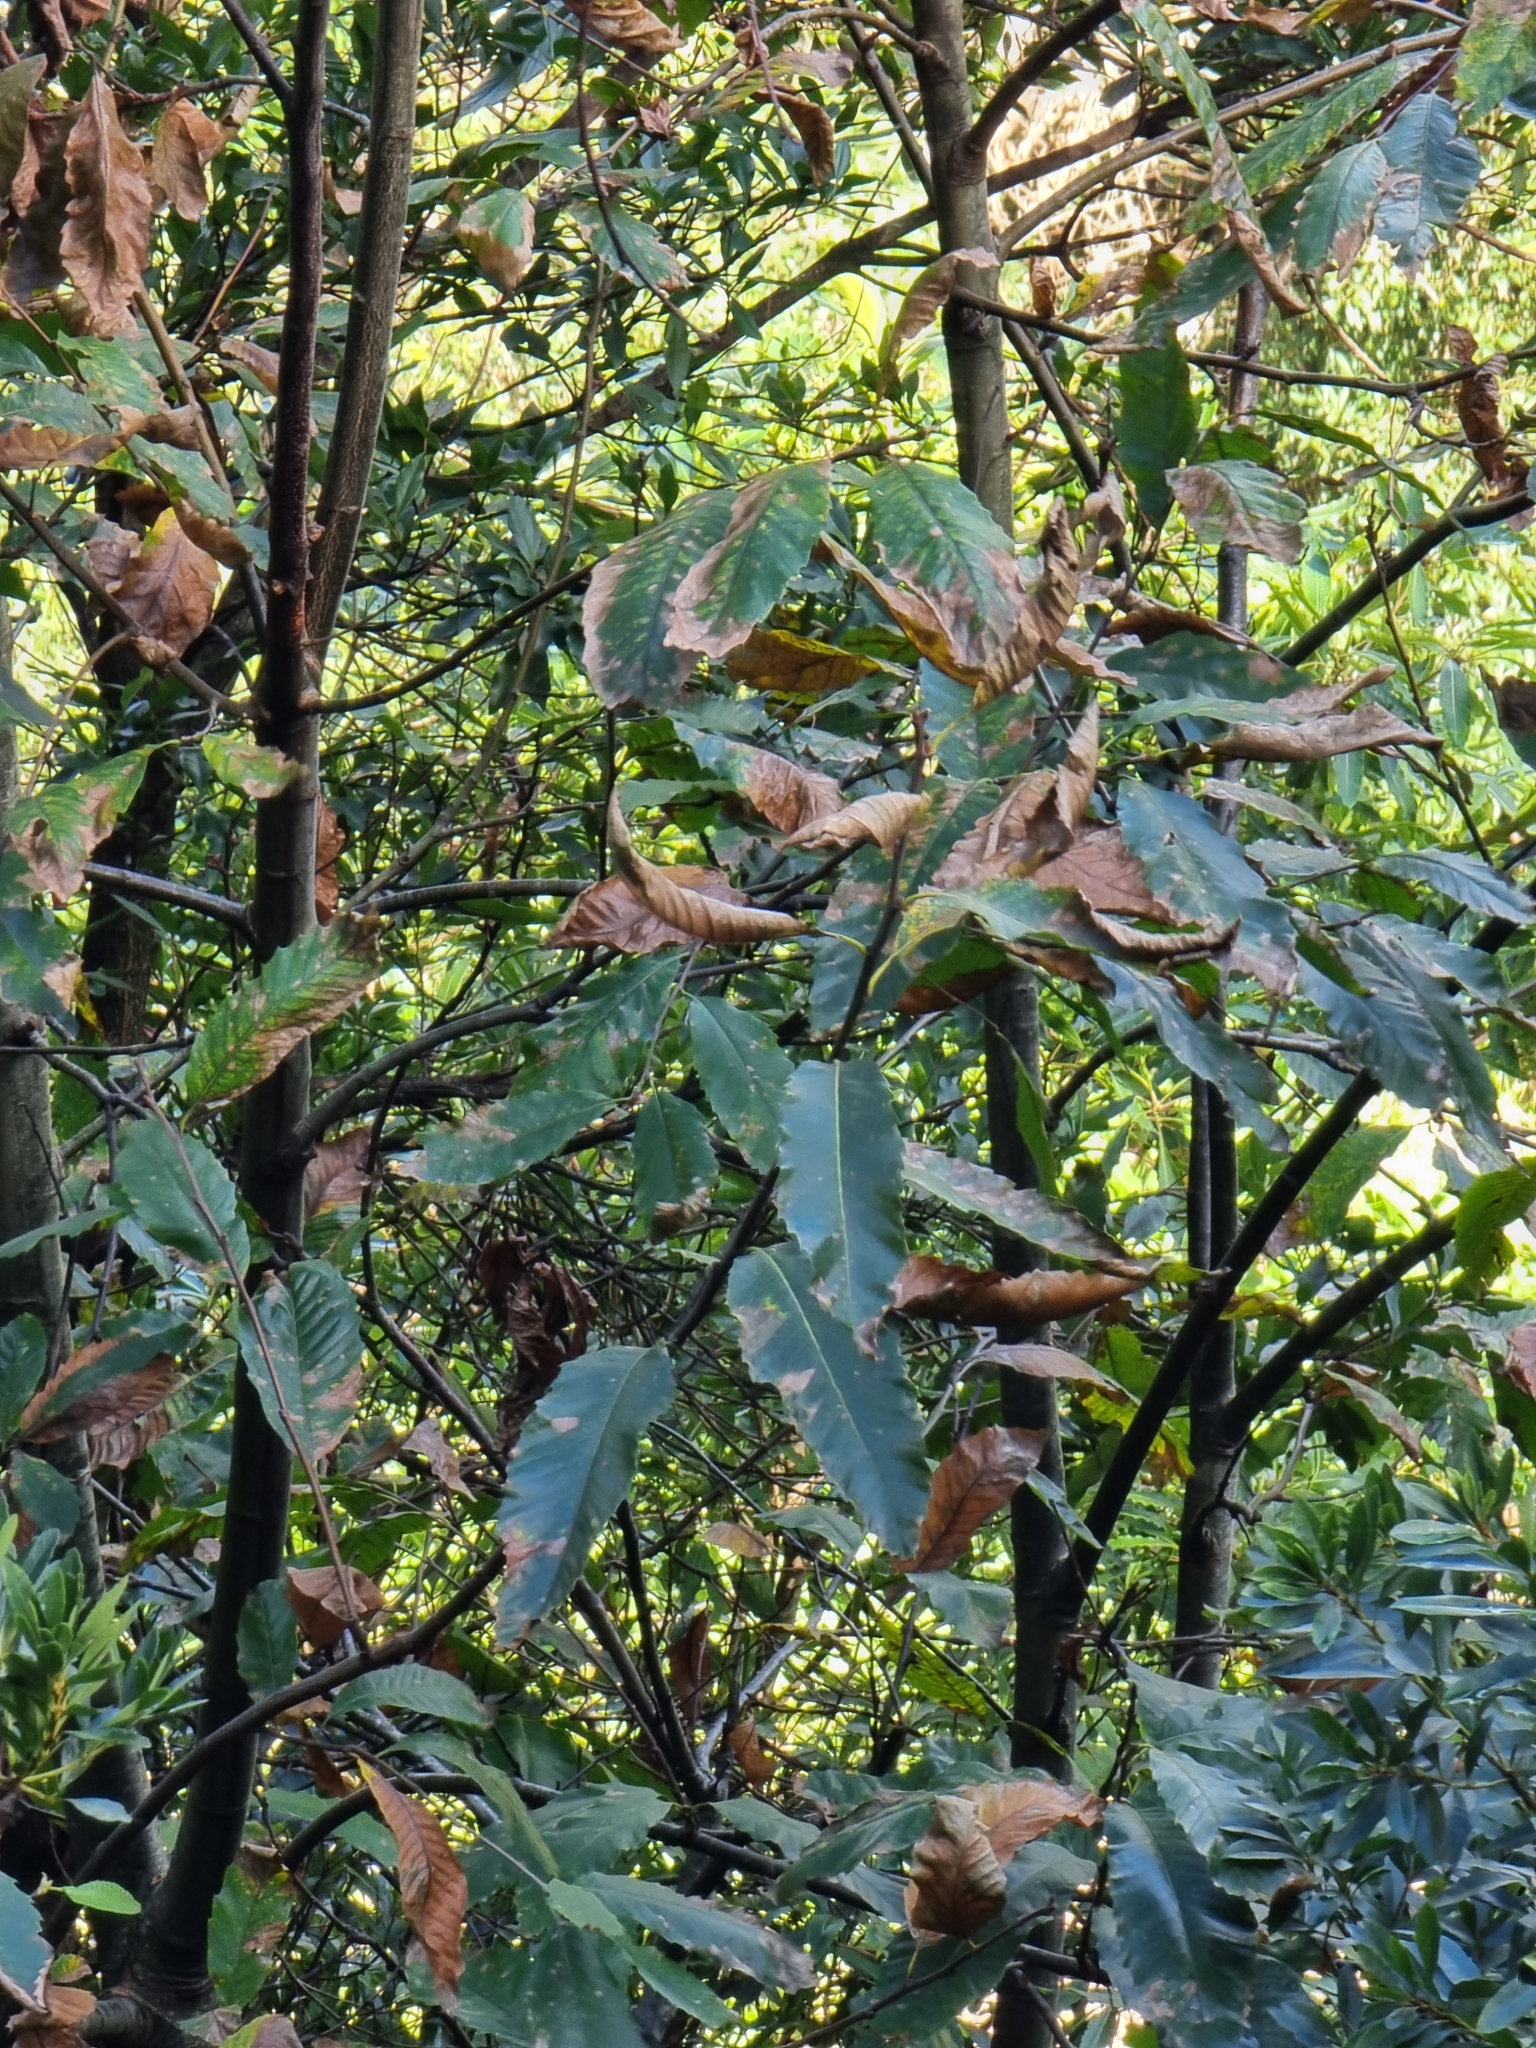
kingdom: Plantae
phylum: Tracheophyta
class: Magnoliopsida
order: Fagales
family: Fagaceae
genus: Castanea
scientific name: Castanea sativa
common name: Sweet chestnut
